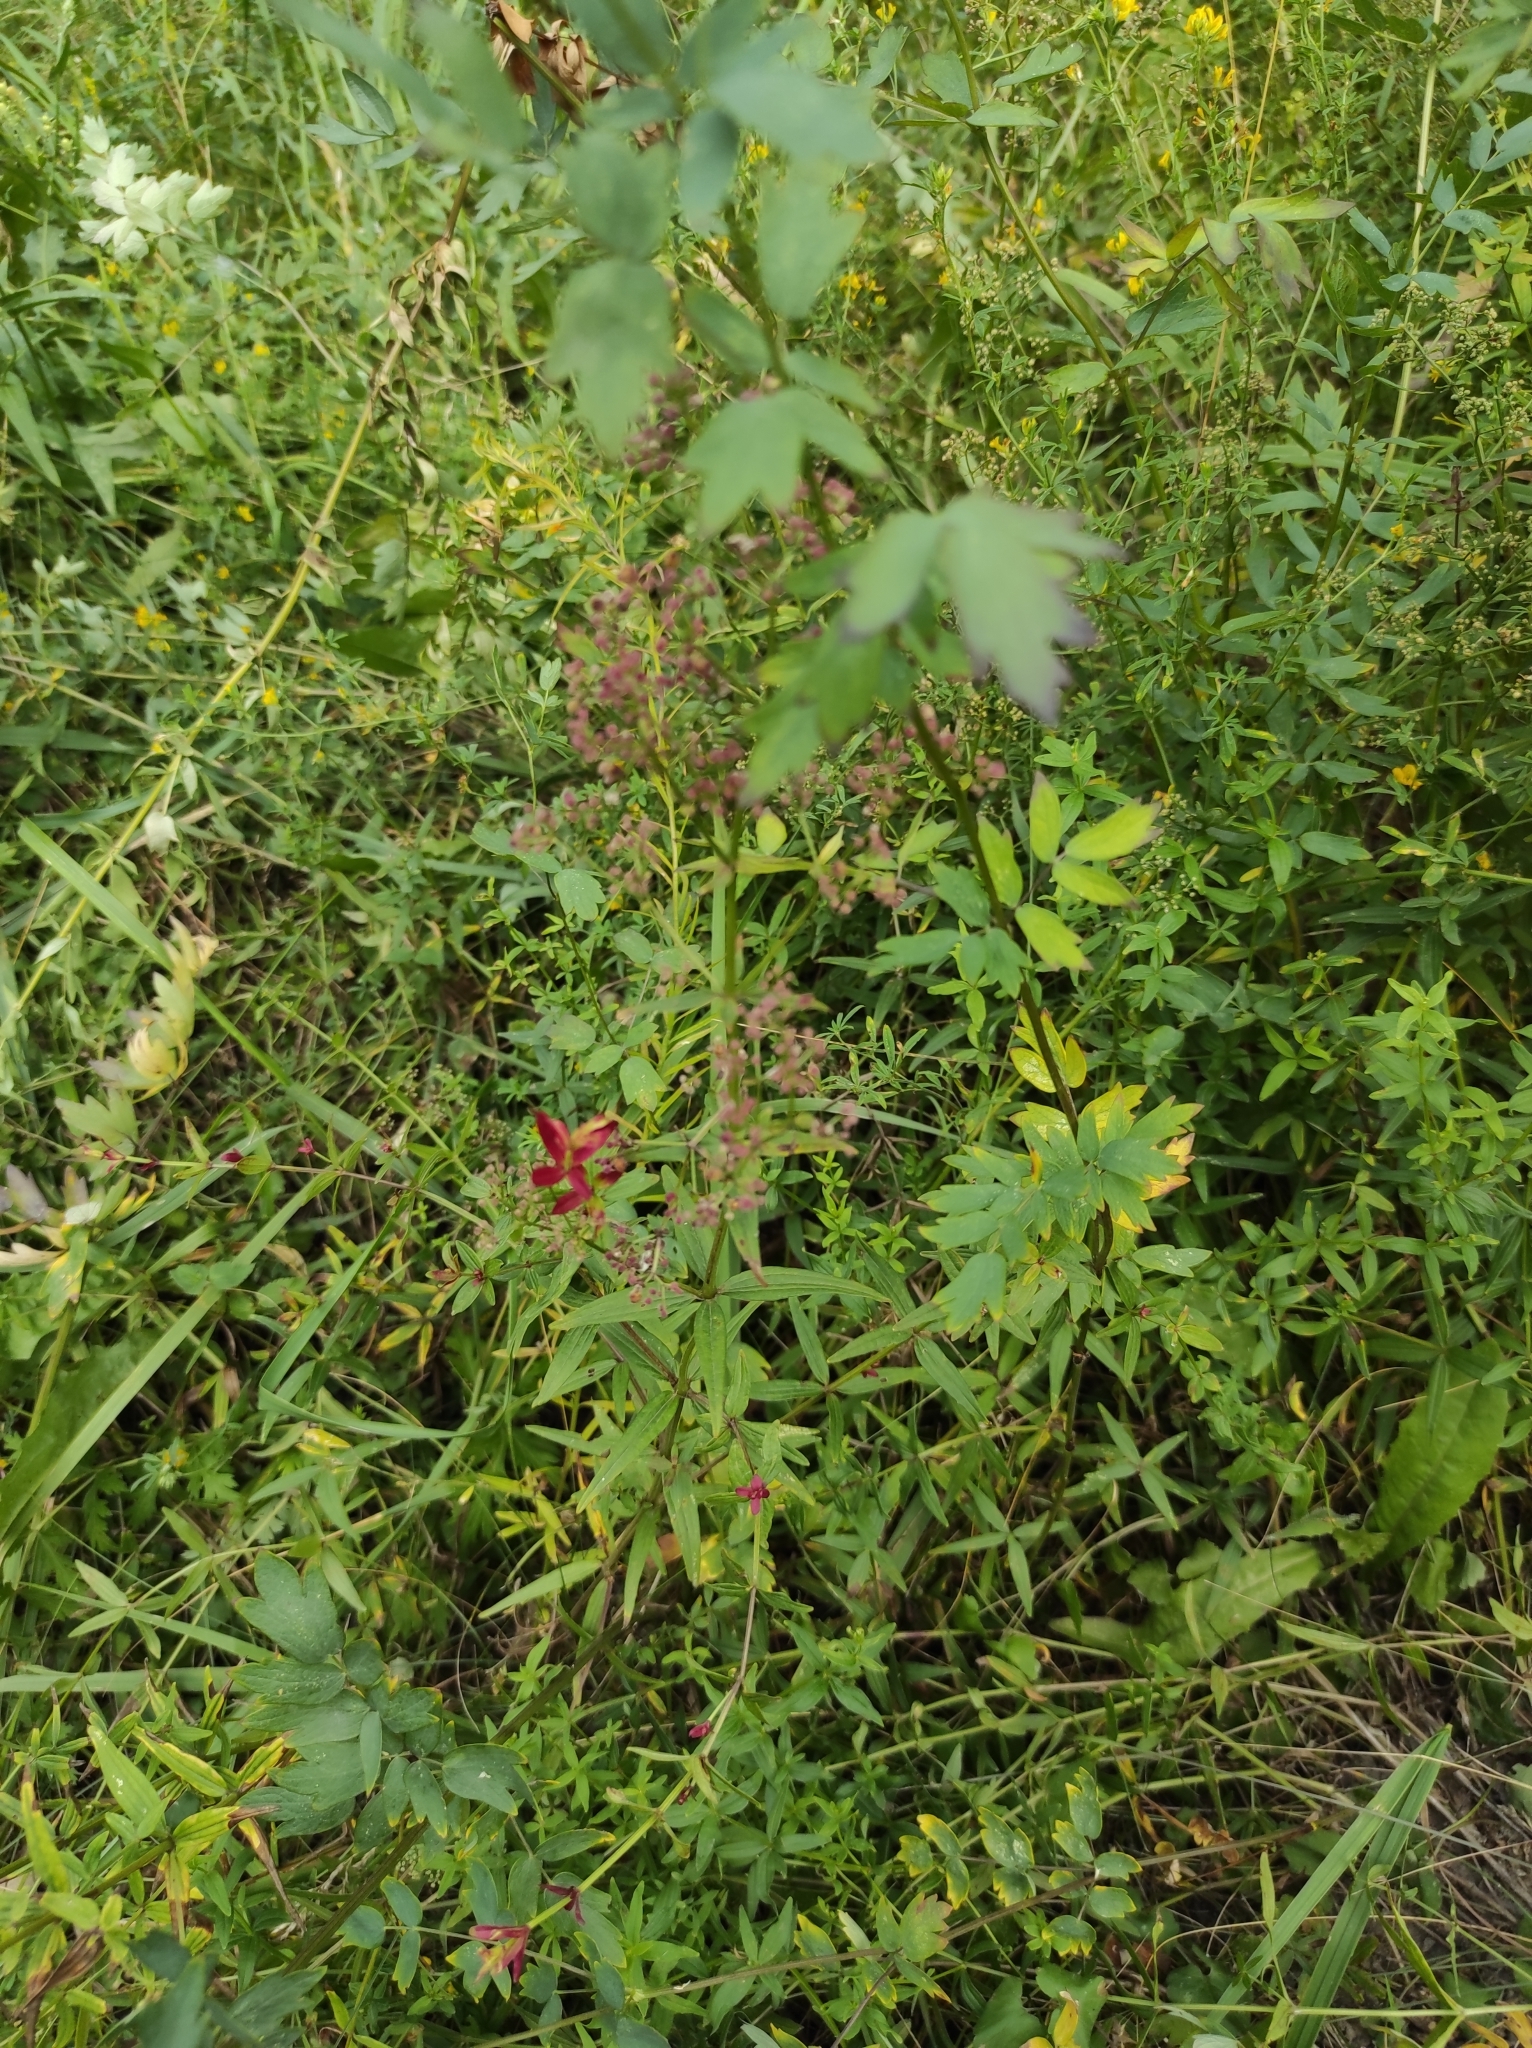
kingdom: Plantae
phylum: Tracheophyta
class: Magnoliopsida
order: Gentianales
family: Rubiaceae
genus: Galium
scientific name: Galium boreale
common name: Northern bedstraw
